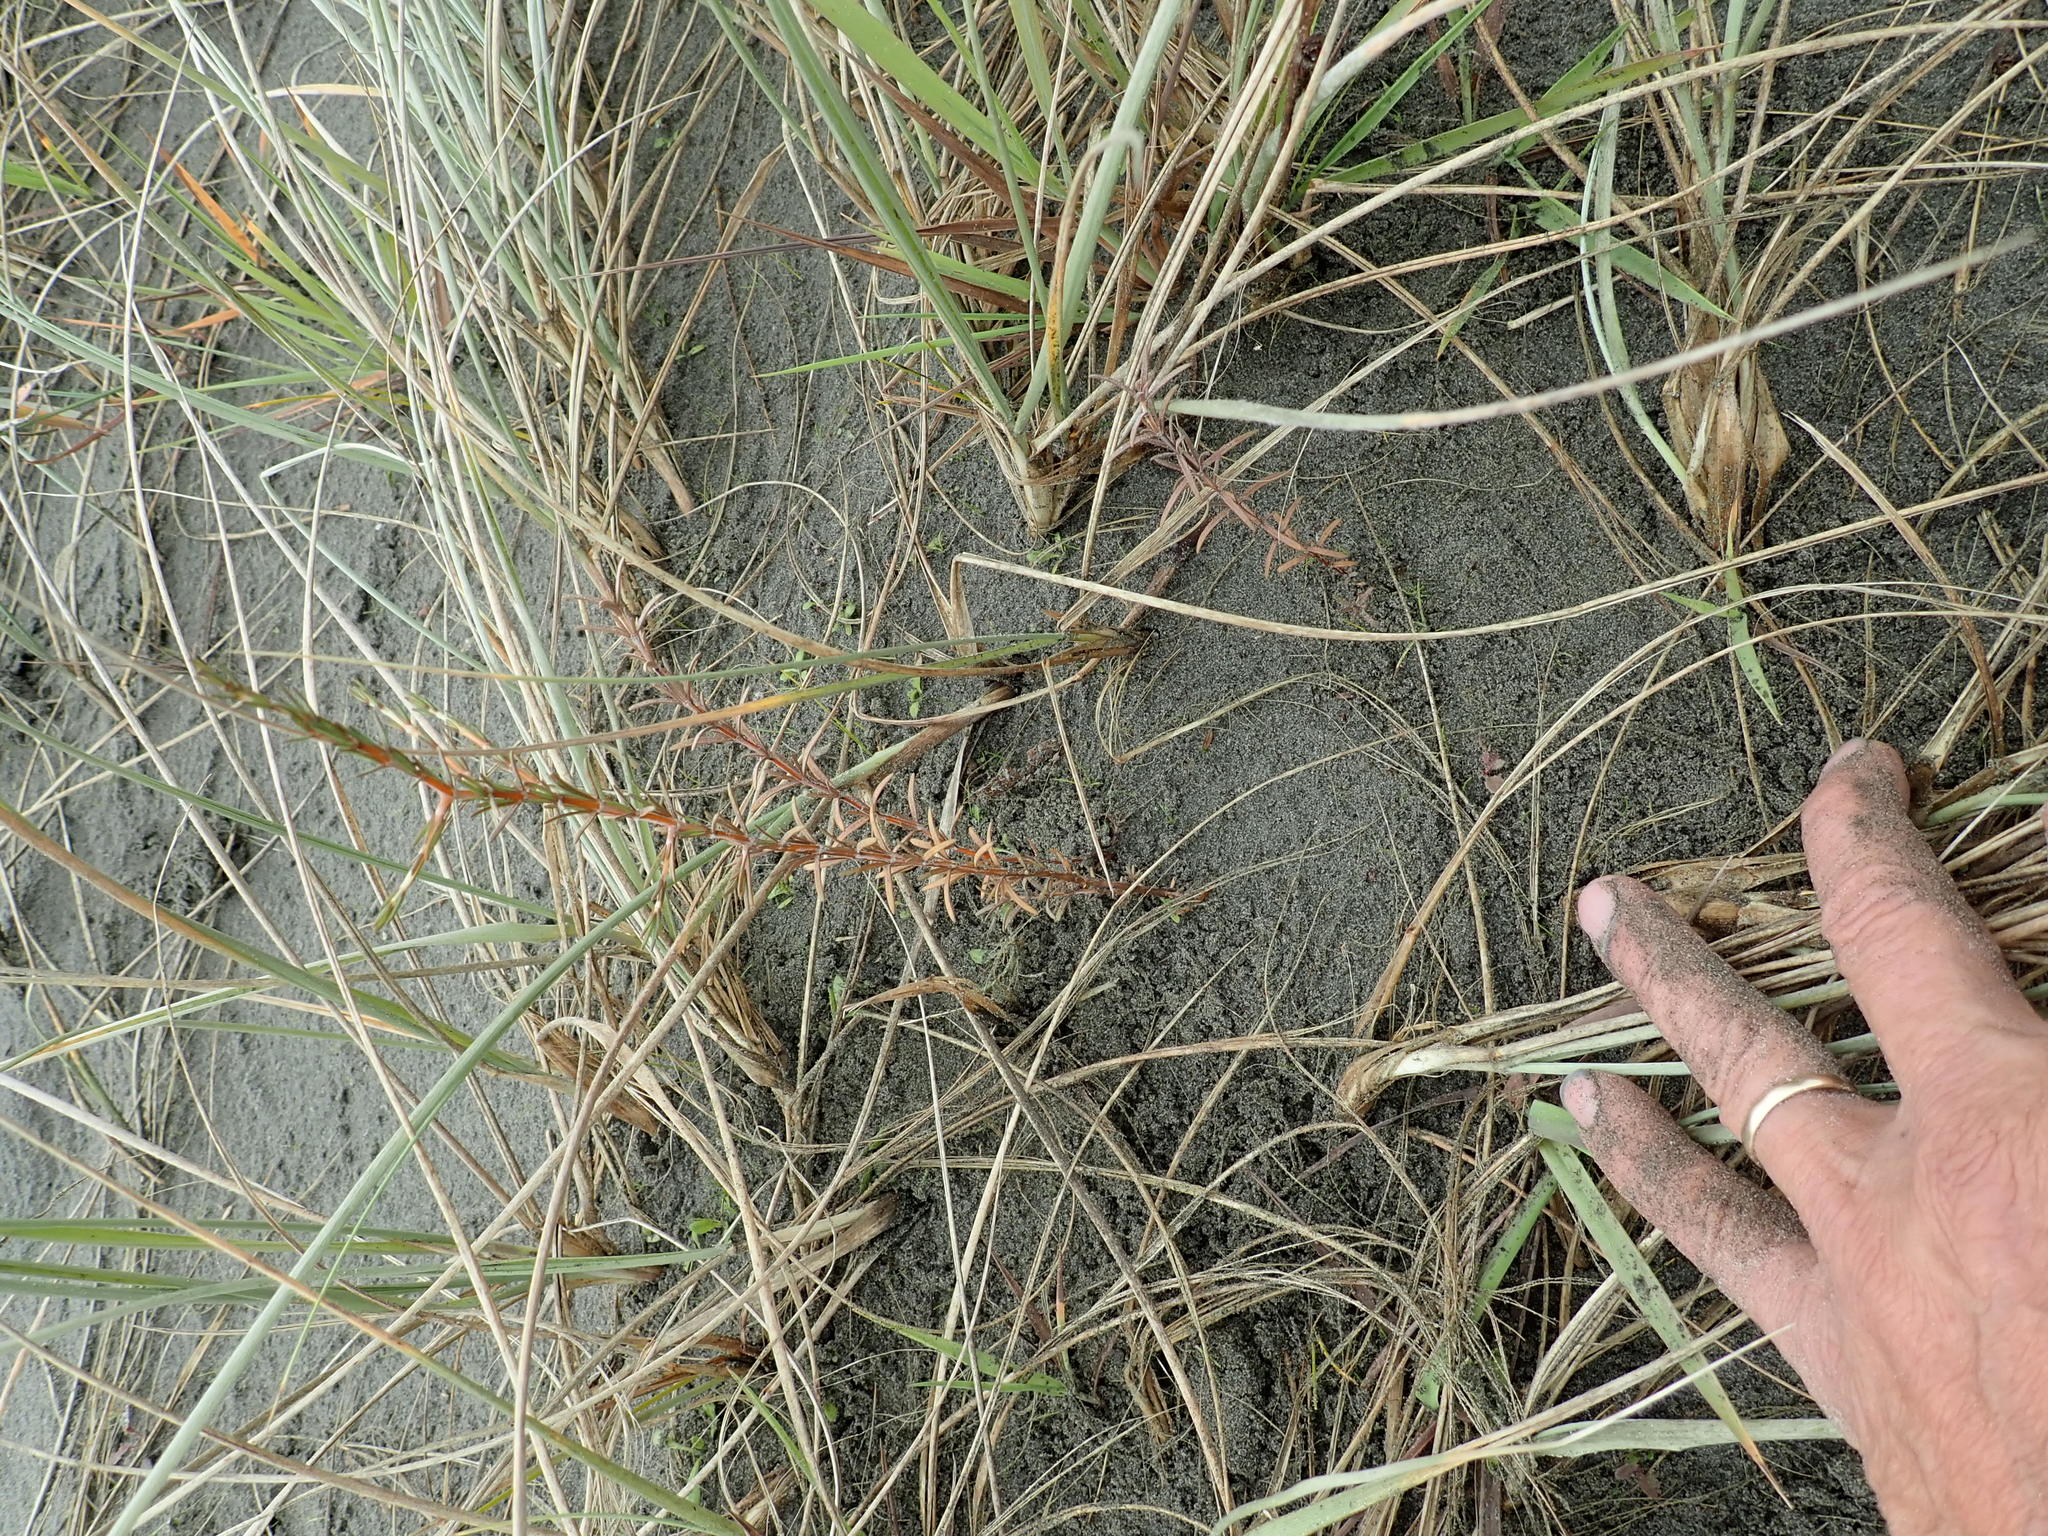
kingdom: Plantae
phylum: Tracheophyta
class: Magnoliopsida
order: Gentianales
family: Rubiaceae
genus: Coprosma
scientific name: Coprosma acerosa
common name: Sand coprosma
